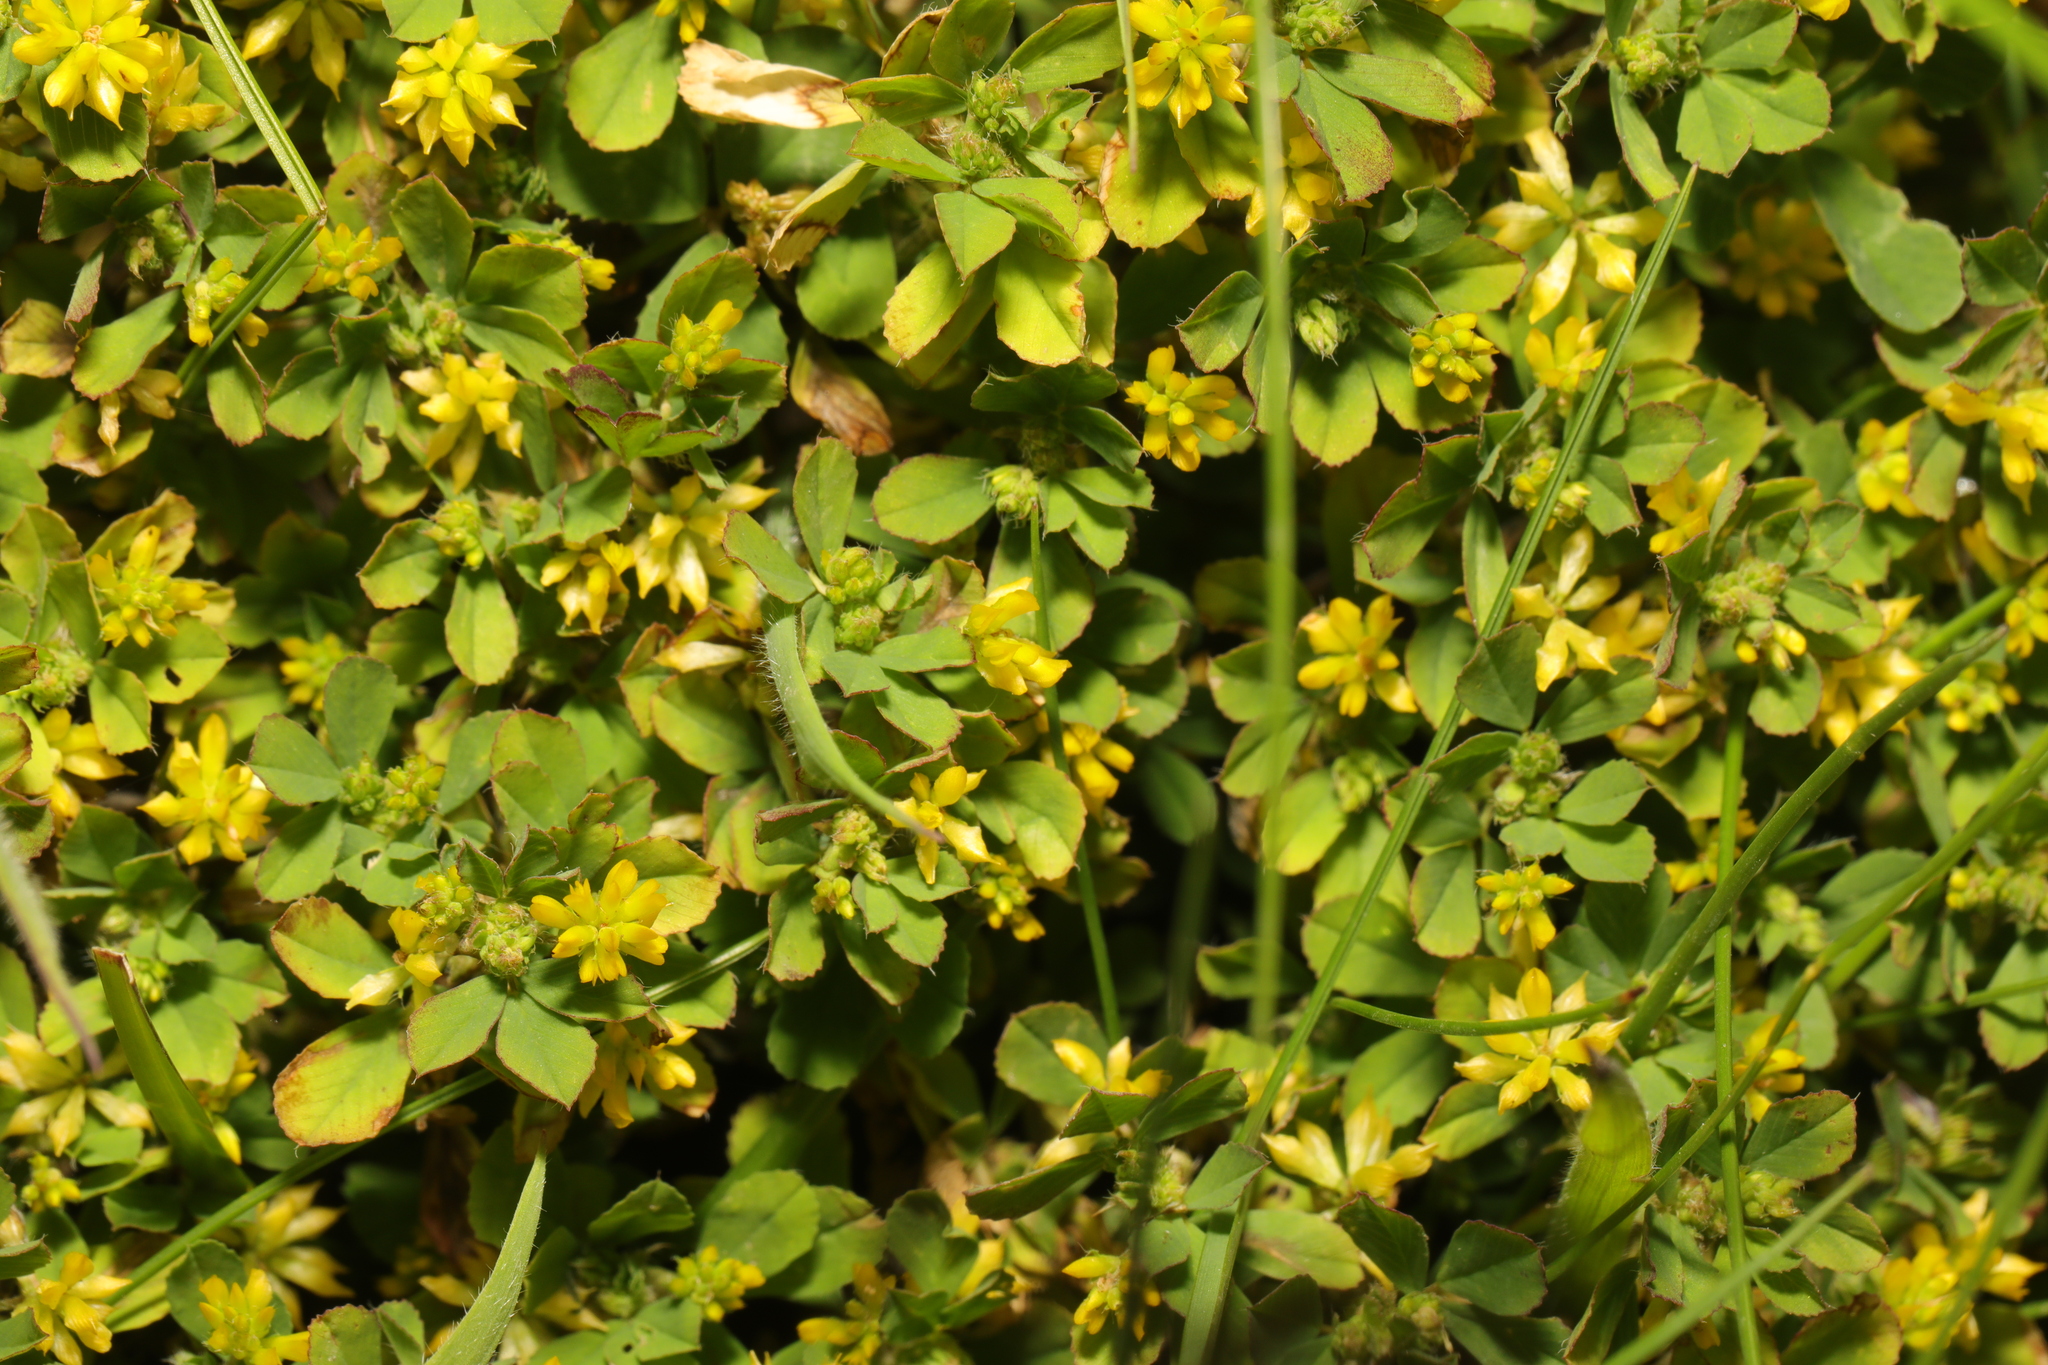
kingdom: Plantae
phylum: Tracheophyta
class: Magnoliopsida
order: Fabales
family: Fabaceae
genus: Trifolium
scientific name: Trifolium dubium
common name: Suckling clover
